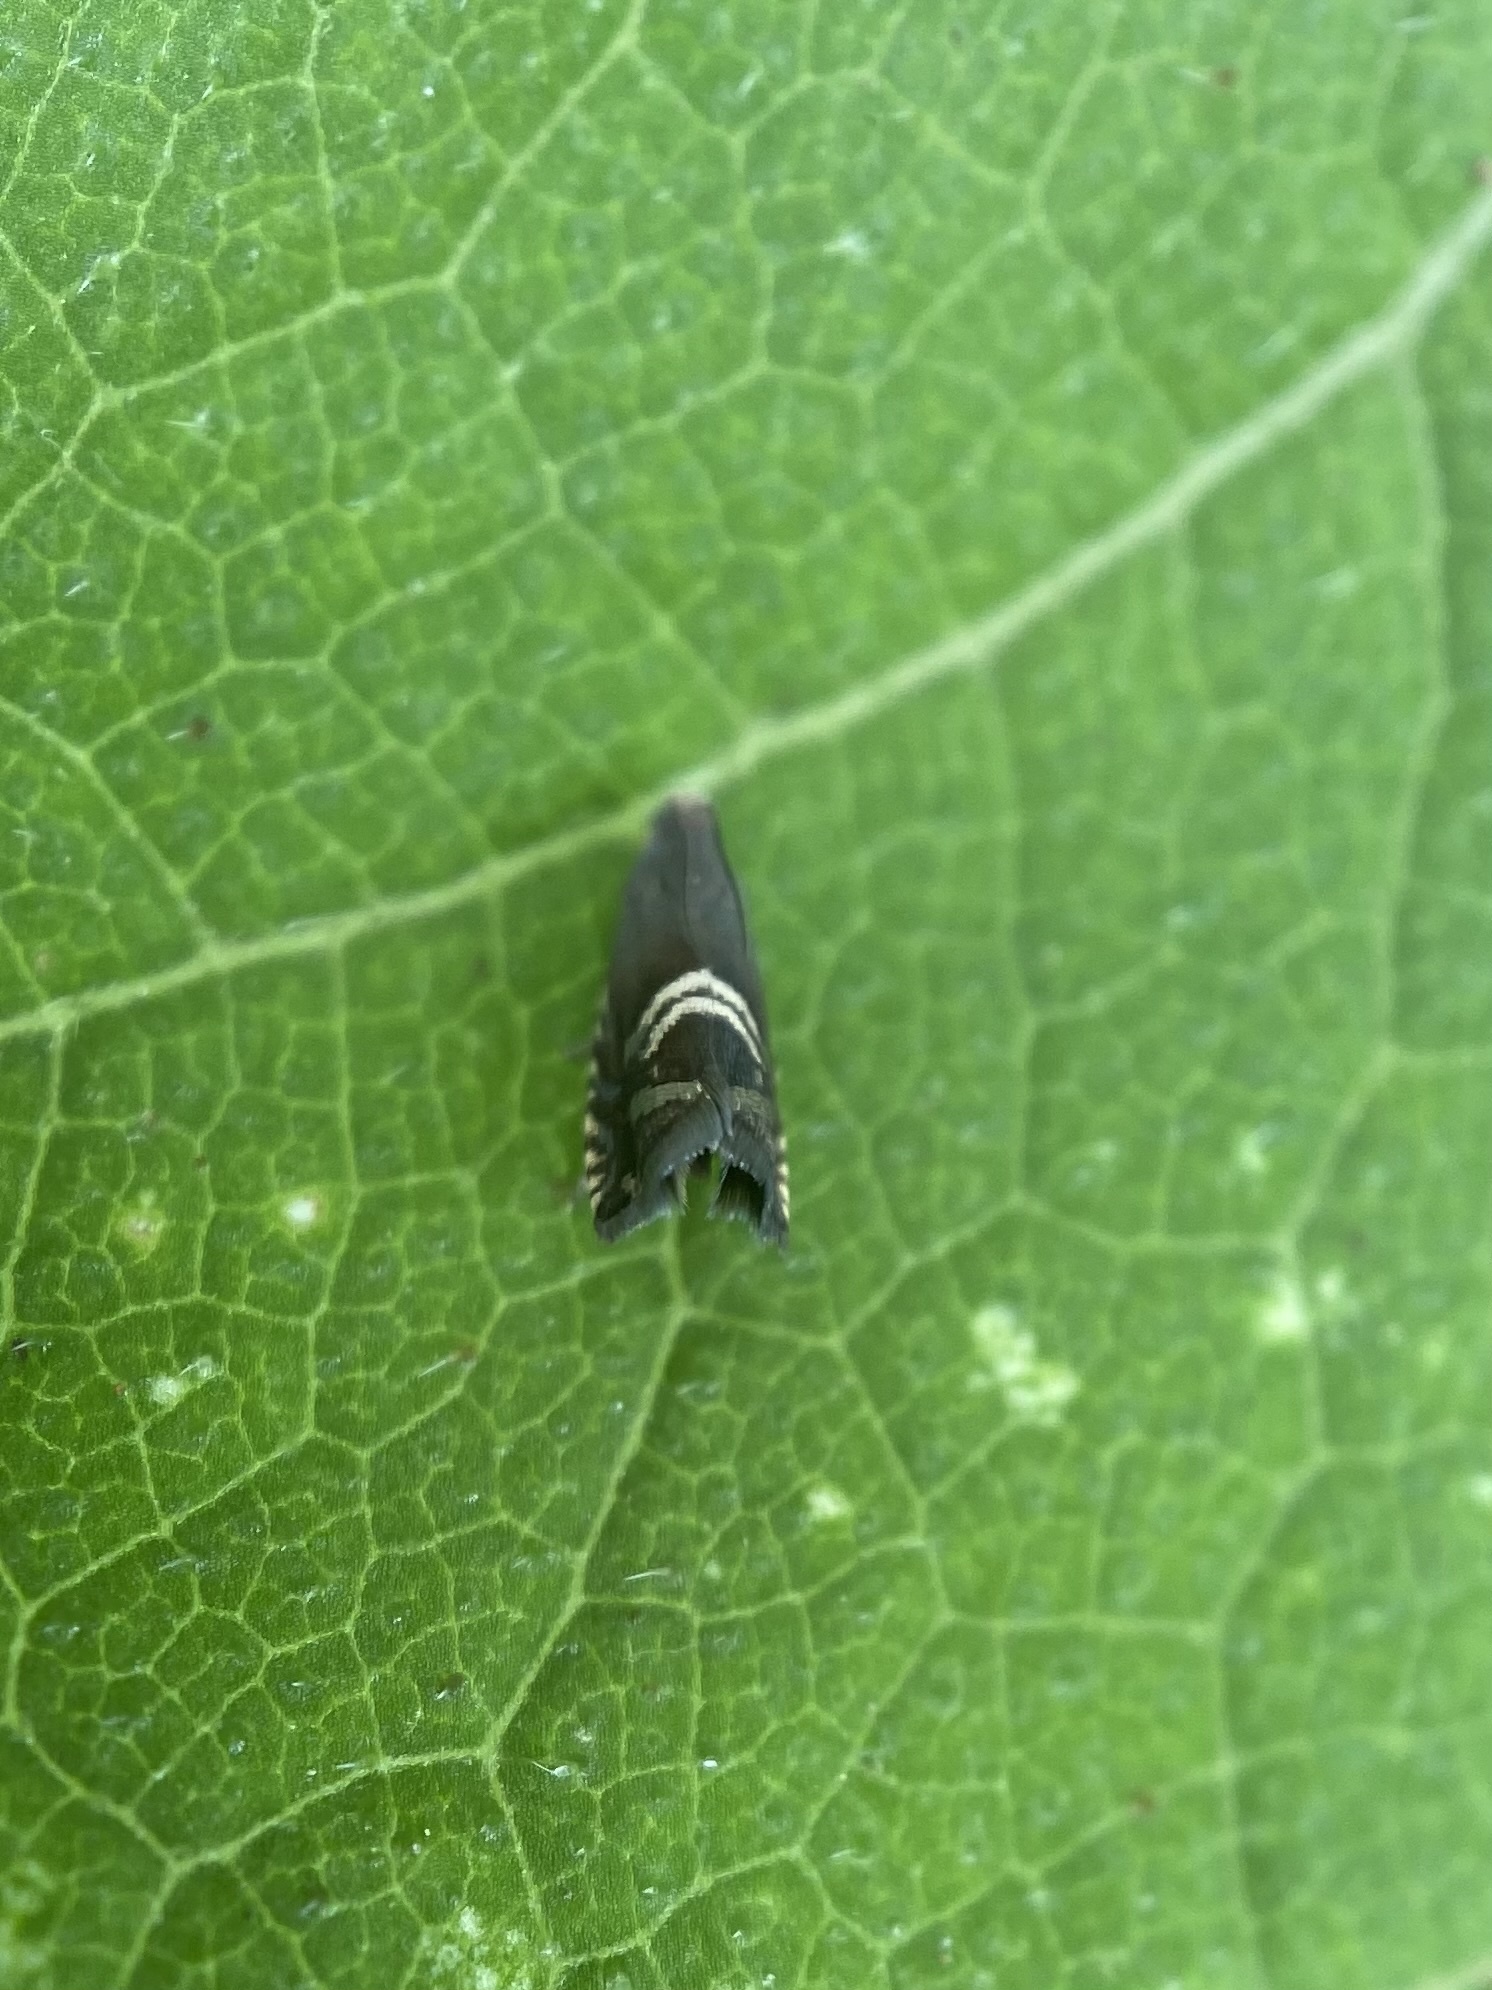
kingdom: Animalia
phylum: Arthropoda
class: Insecta
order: Lepidoptera
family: Tortricidae
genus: Grapholita
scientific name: Grapholita interstinctana
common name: Clover head caterpillar moth
